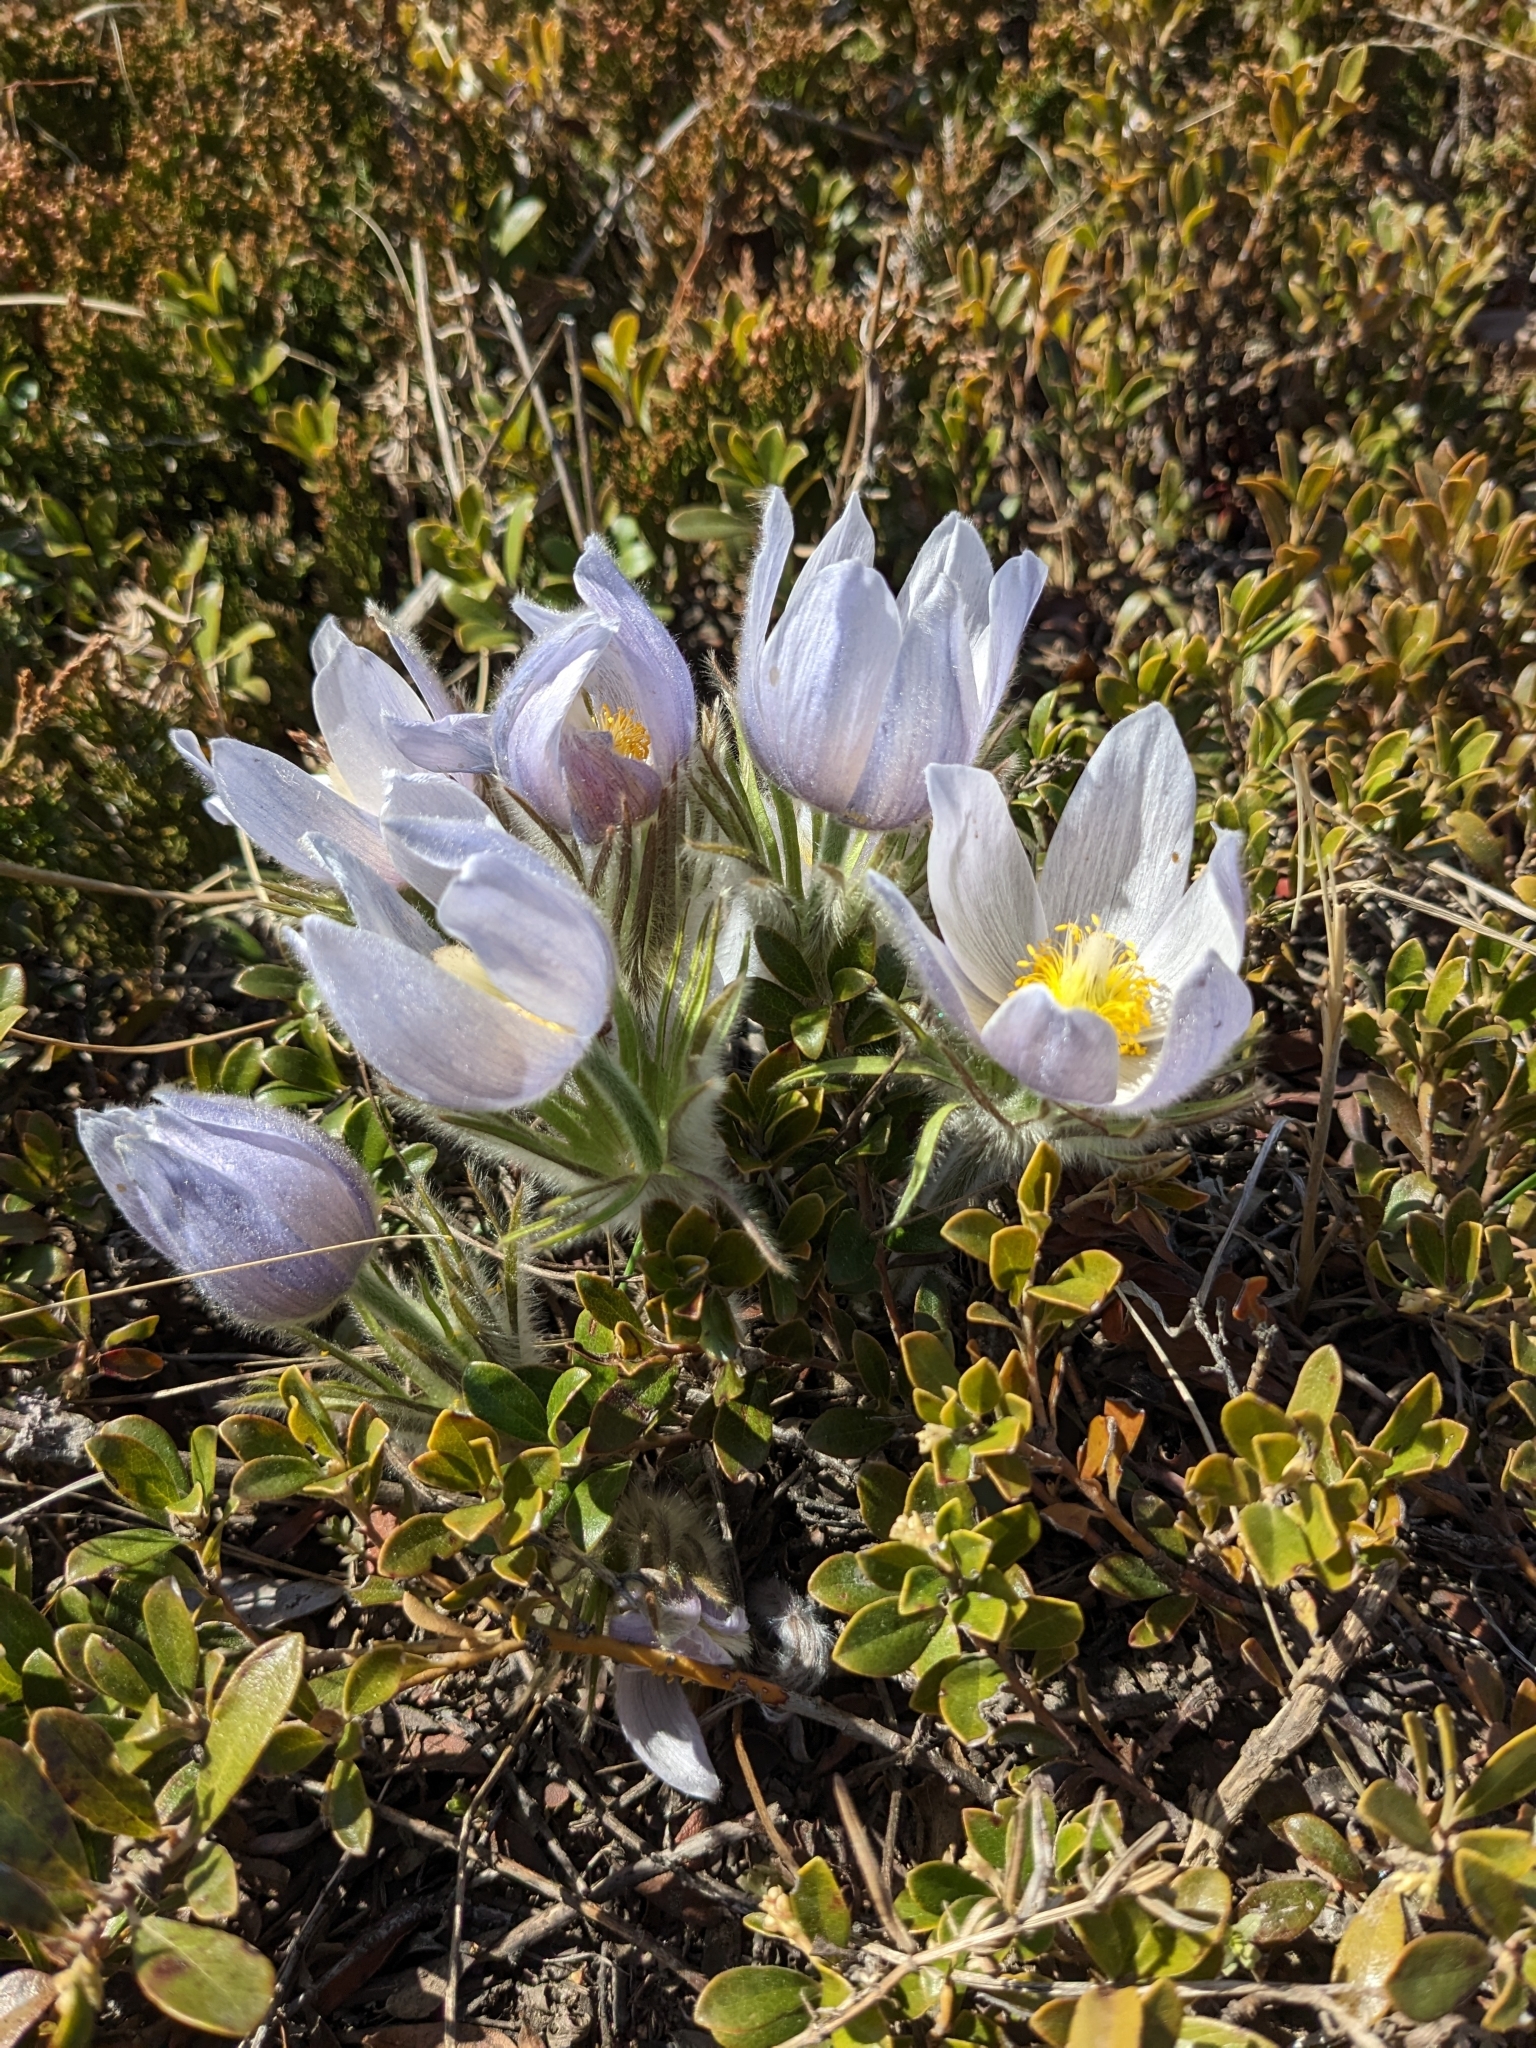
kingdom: Plantae
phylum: Tracheophyta
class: Magnoliopsida
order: Ranunculales
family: Ranunculaceae
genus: Pulsatilla
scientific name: Pulsatilla nuttalliana
